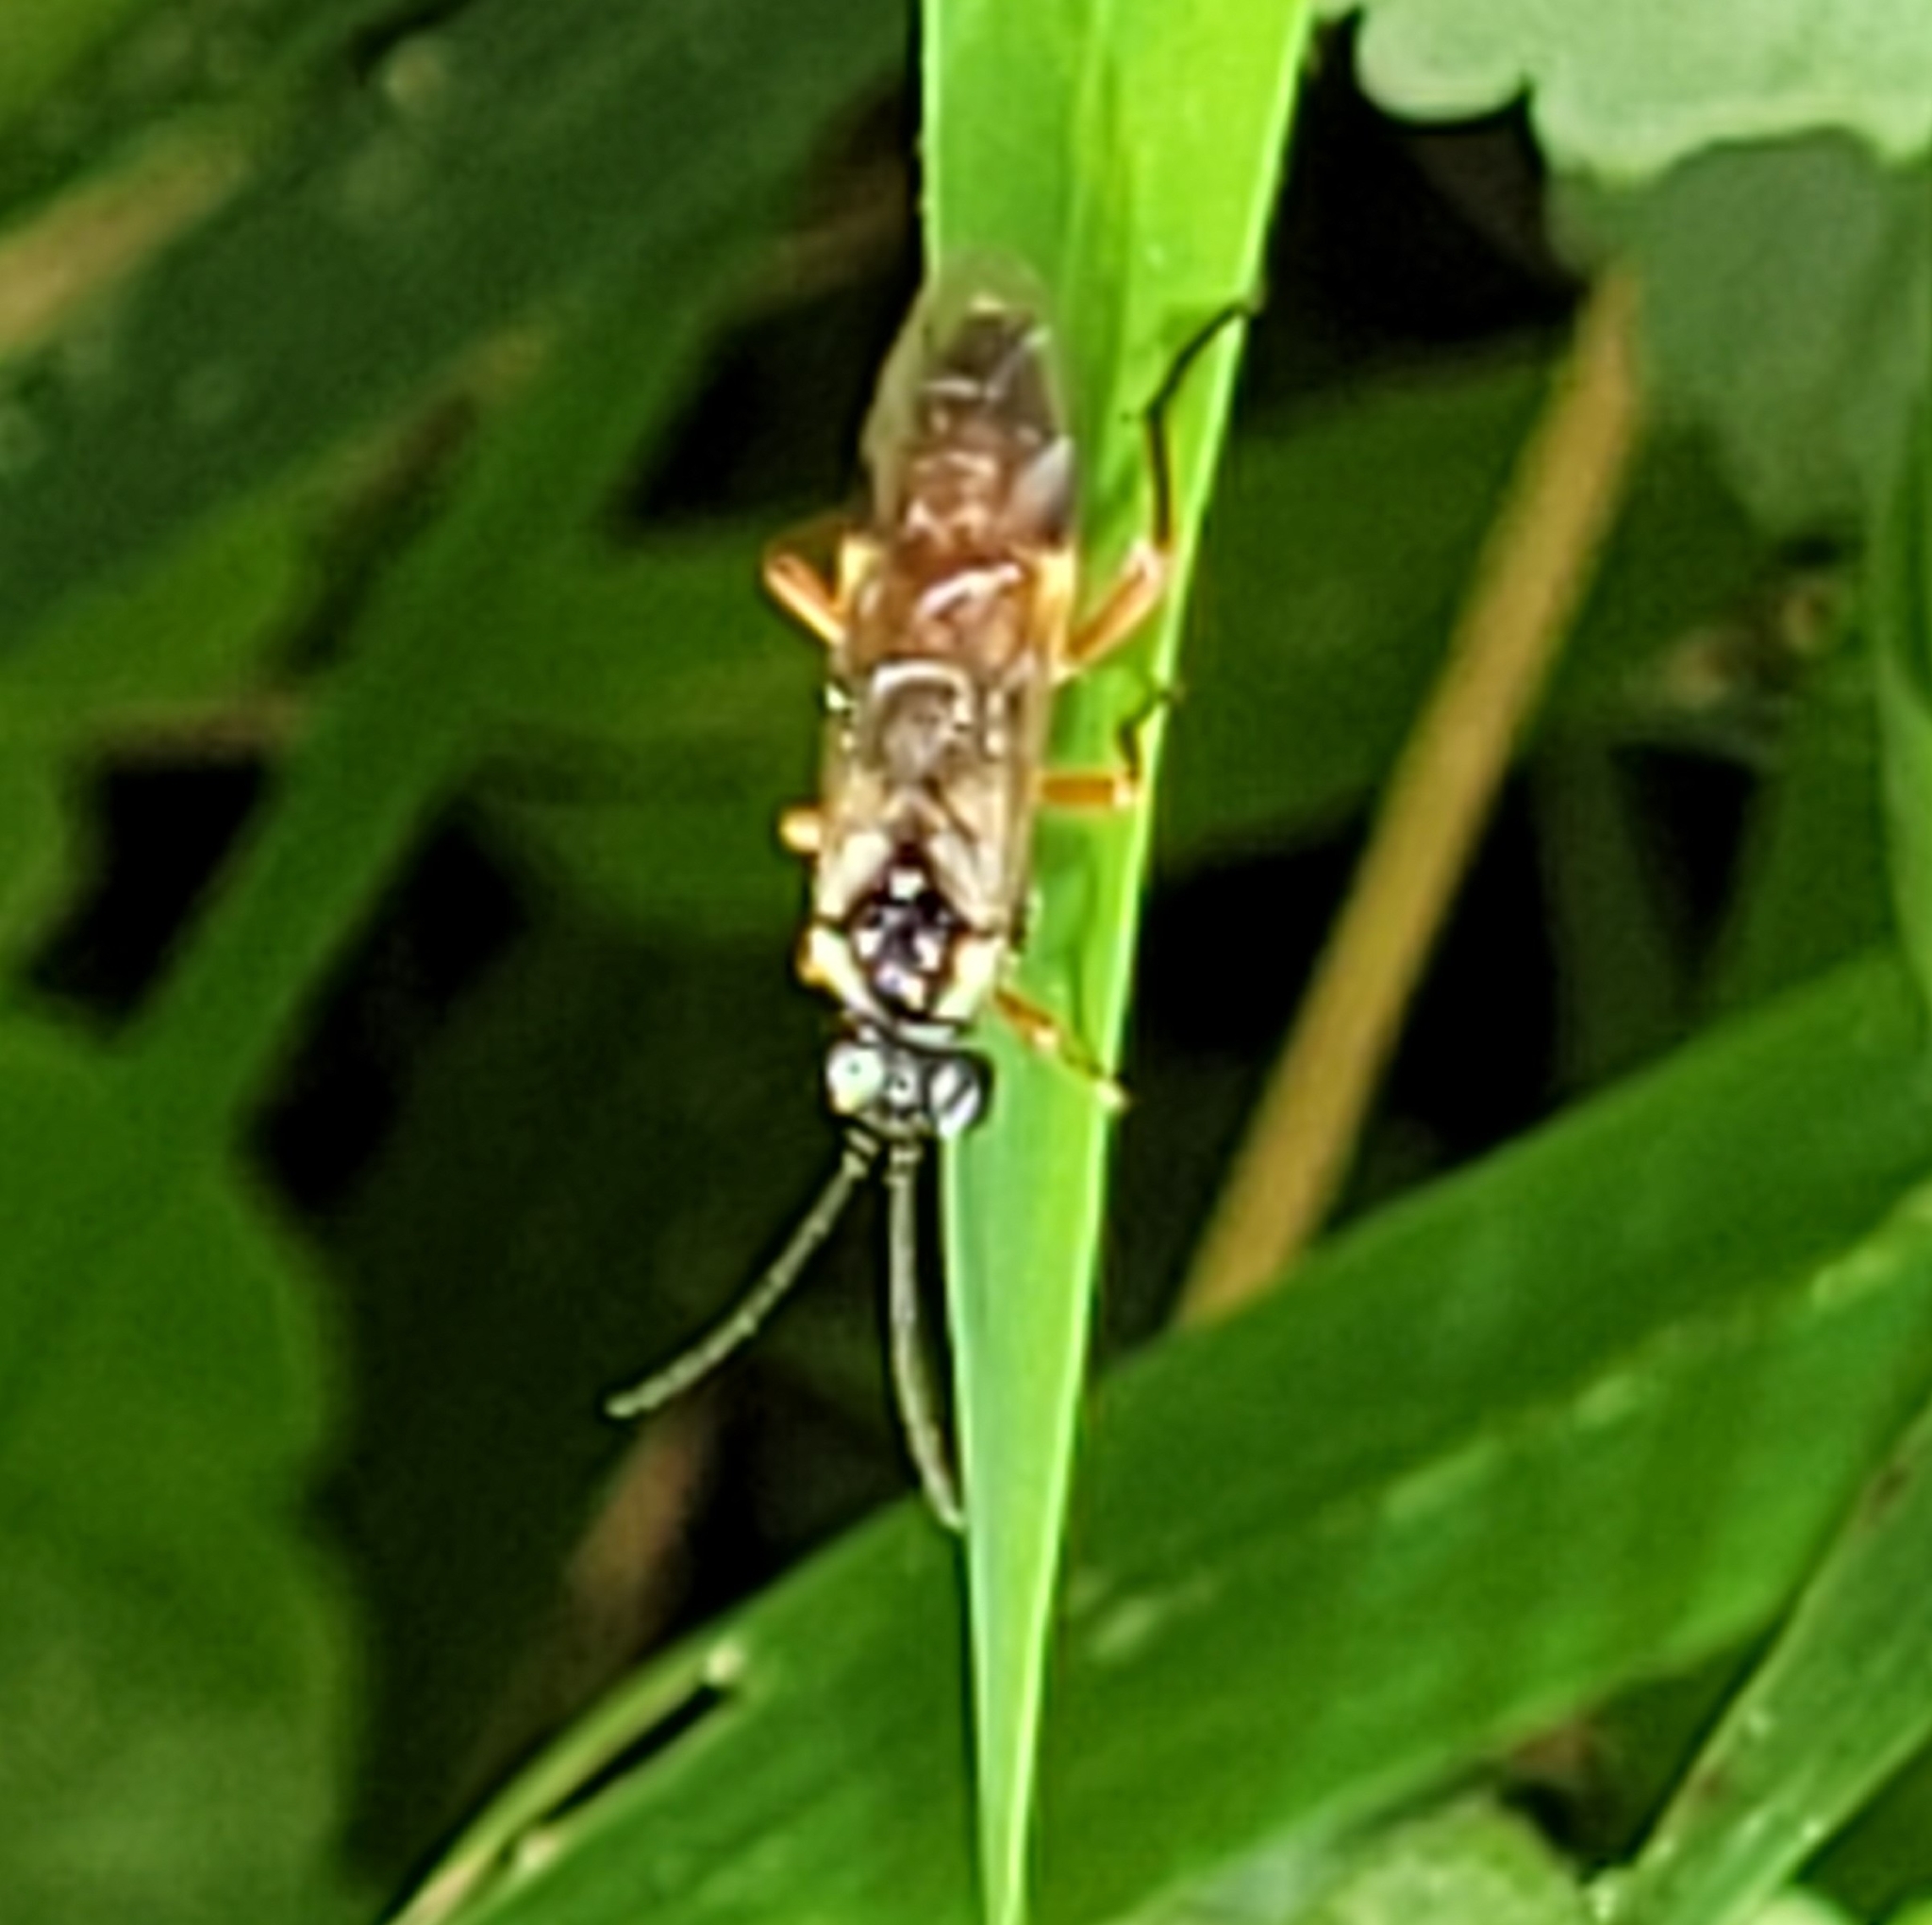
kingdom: Animalia
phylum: Arthropoda
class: Insecta
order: Hymenoptera
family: Tenthredinidae
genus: Aglaostigma
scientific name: Aglaostigma fulvipes
